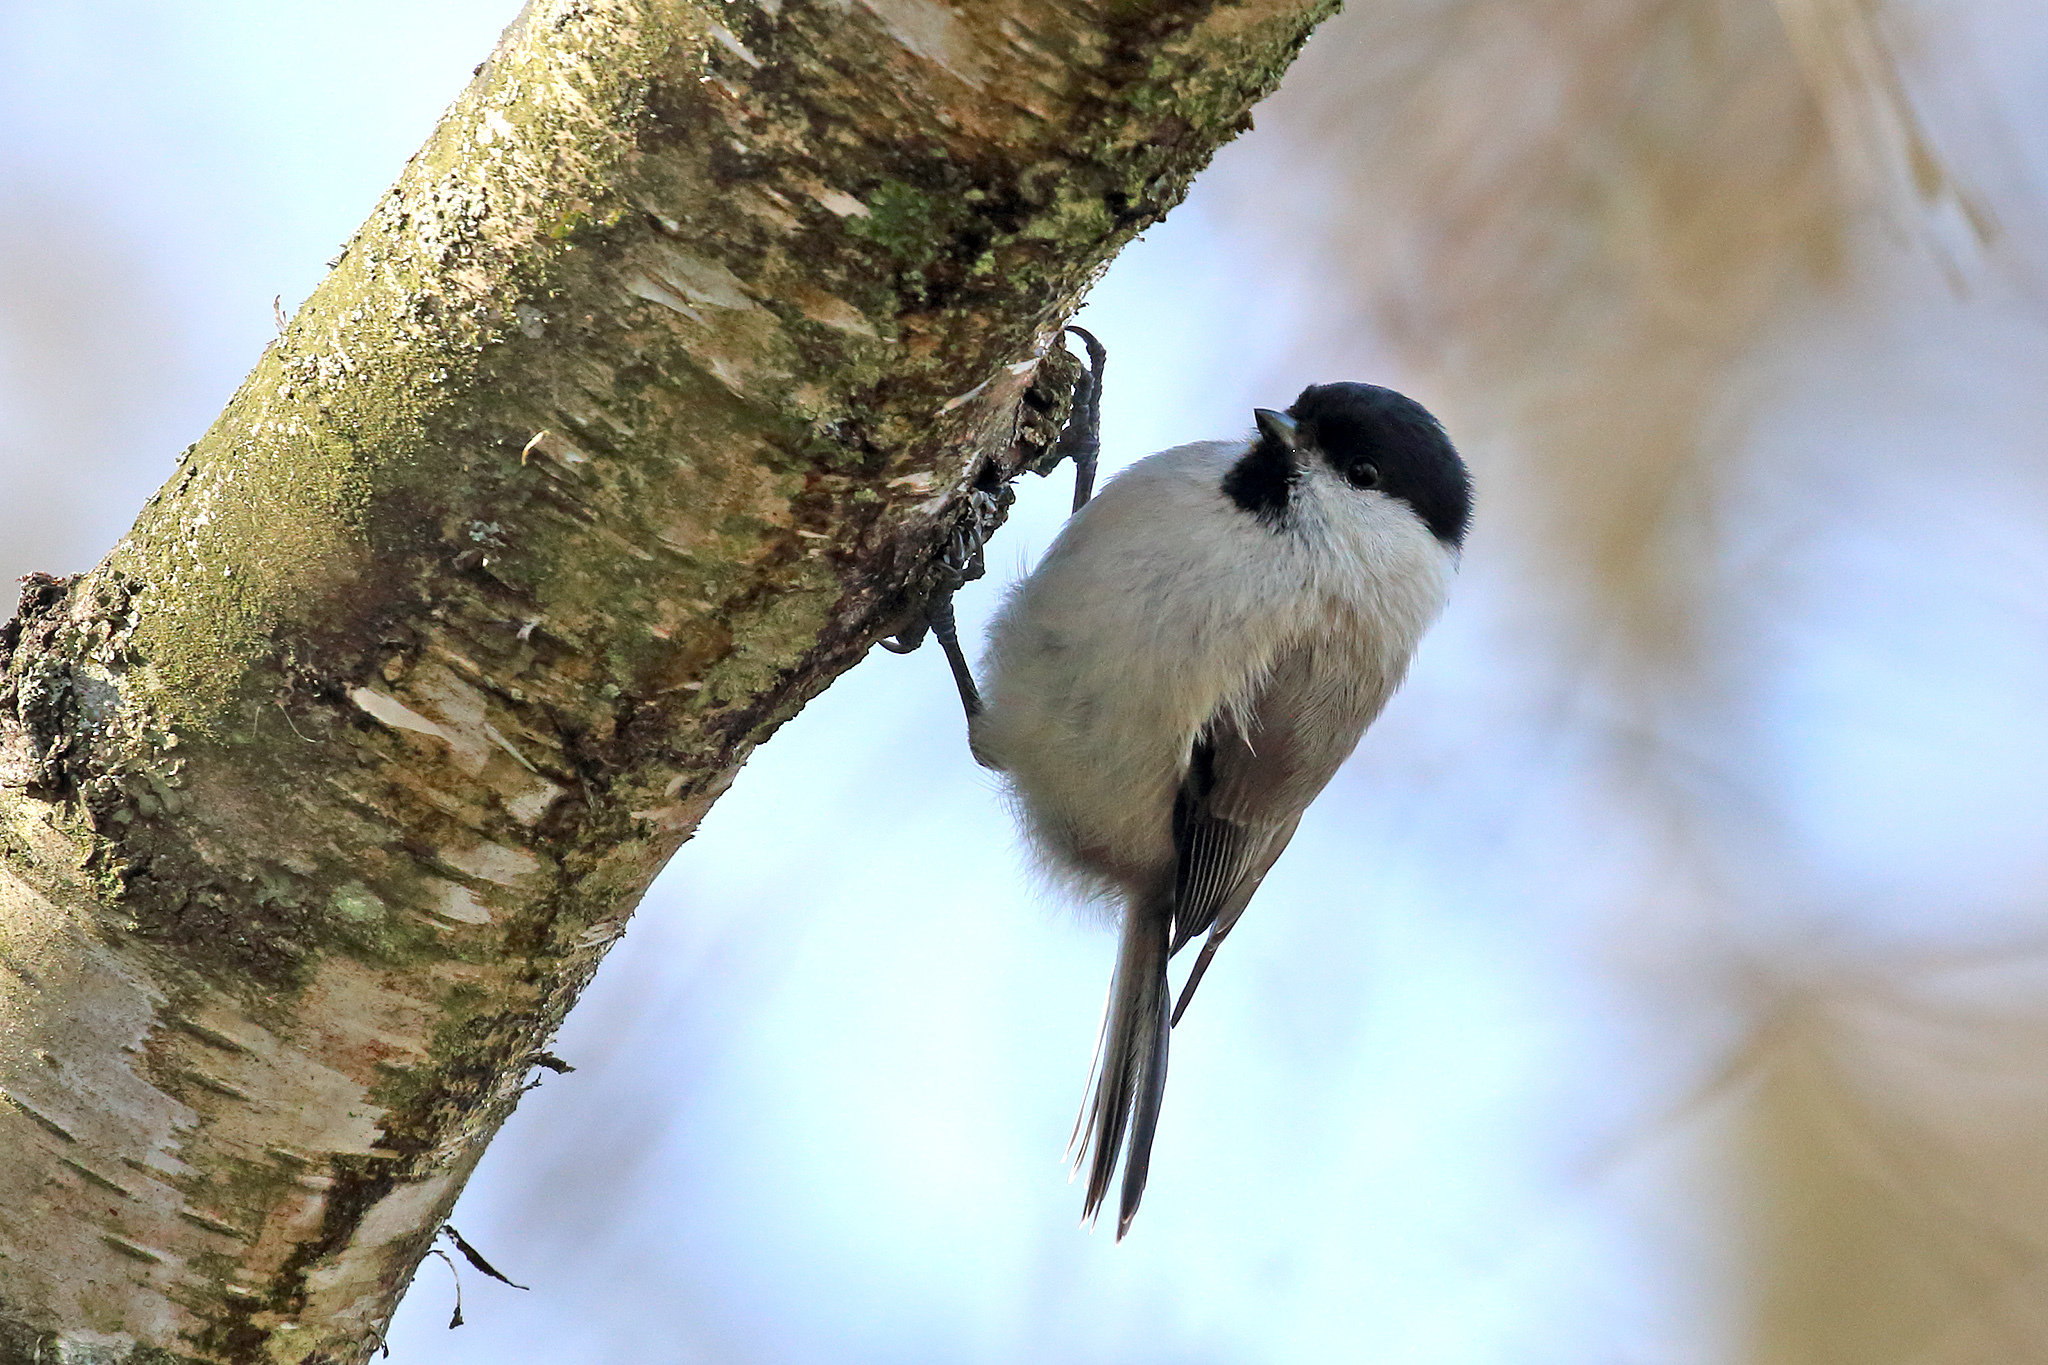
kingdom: Animalia
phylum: Chordata
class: Aves
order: Passeriformes
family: Paridae
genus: Poecile
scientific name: Poecile palustris
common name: Marsh tit
